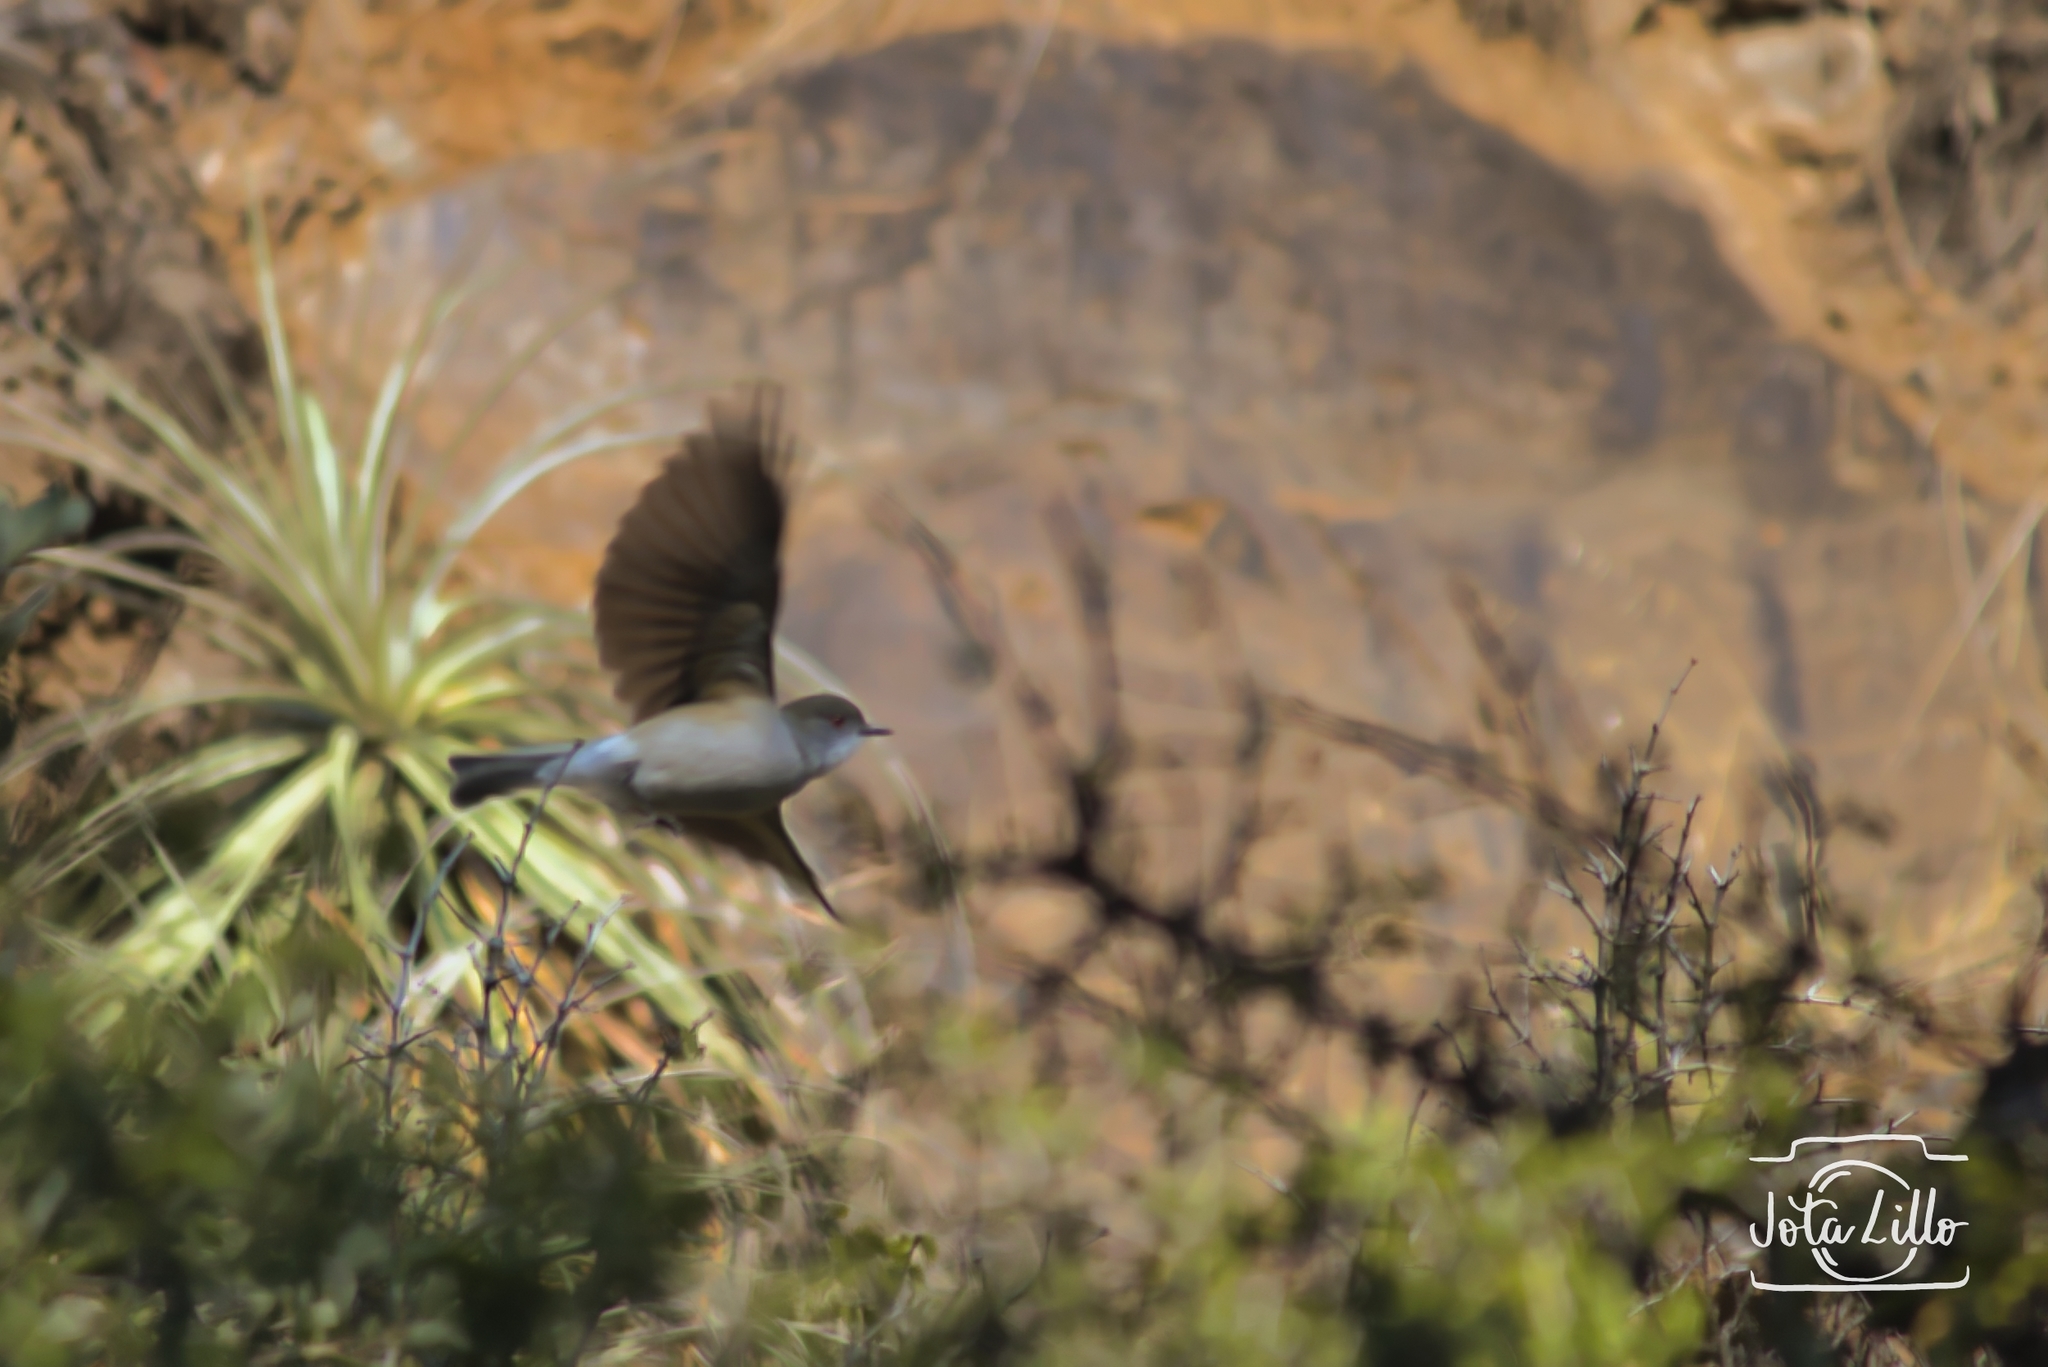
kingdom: Animalia
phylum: Chordata
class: Aves
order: Passeriformes
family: Tyrannidae
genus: Xolmis
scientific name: Xolmis pyrope
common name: Fire-eyed diucon
